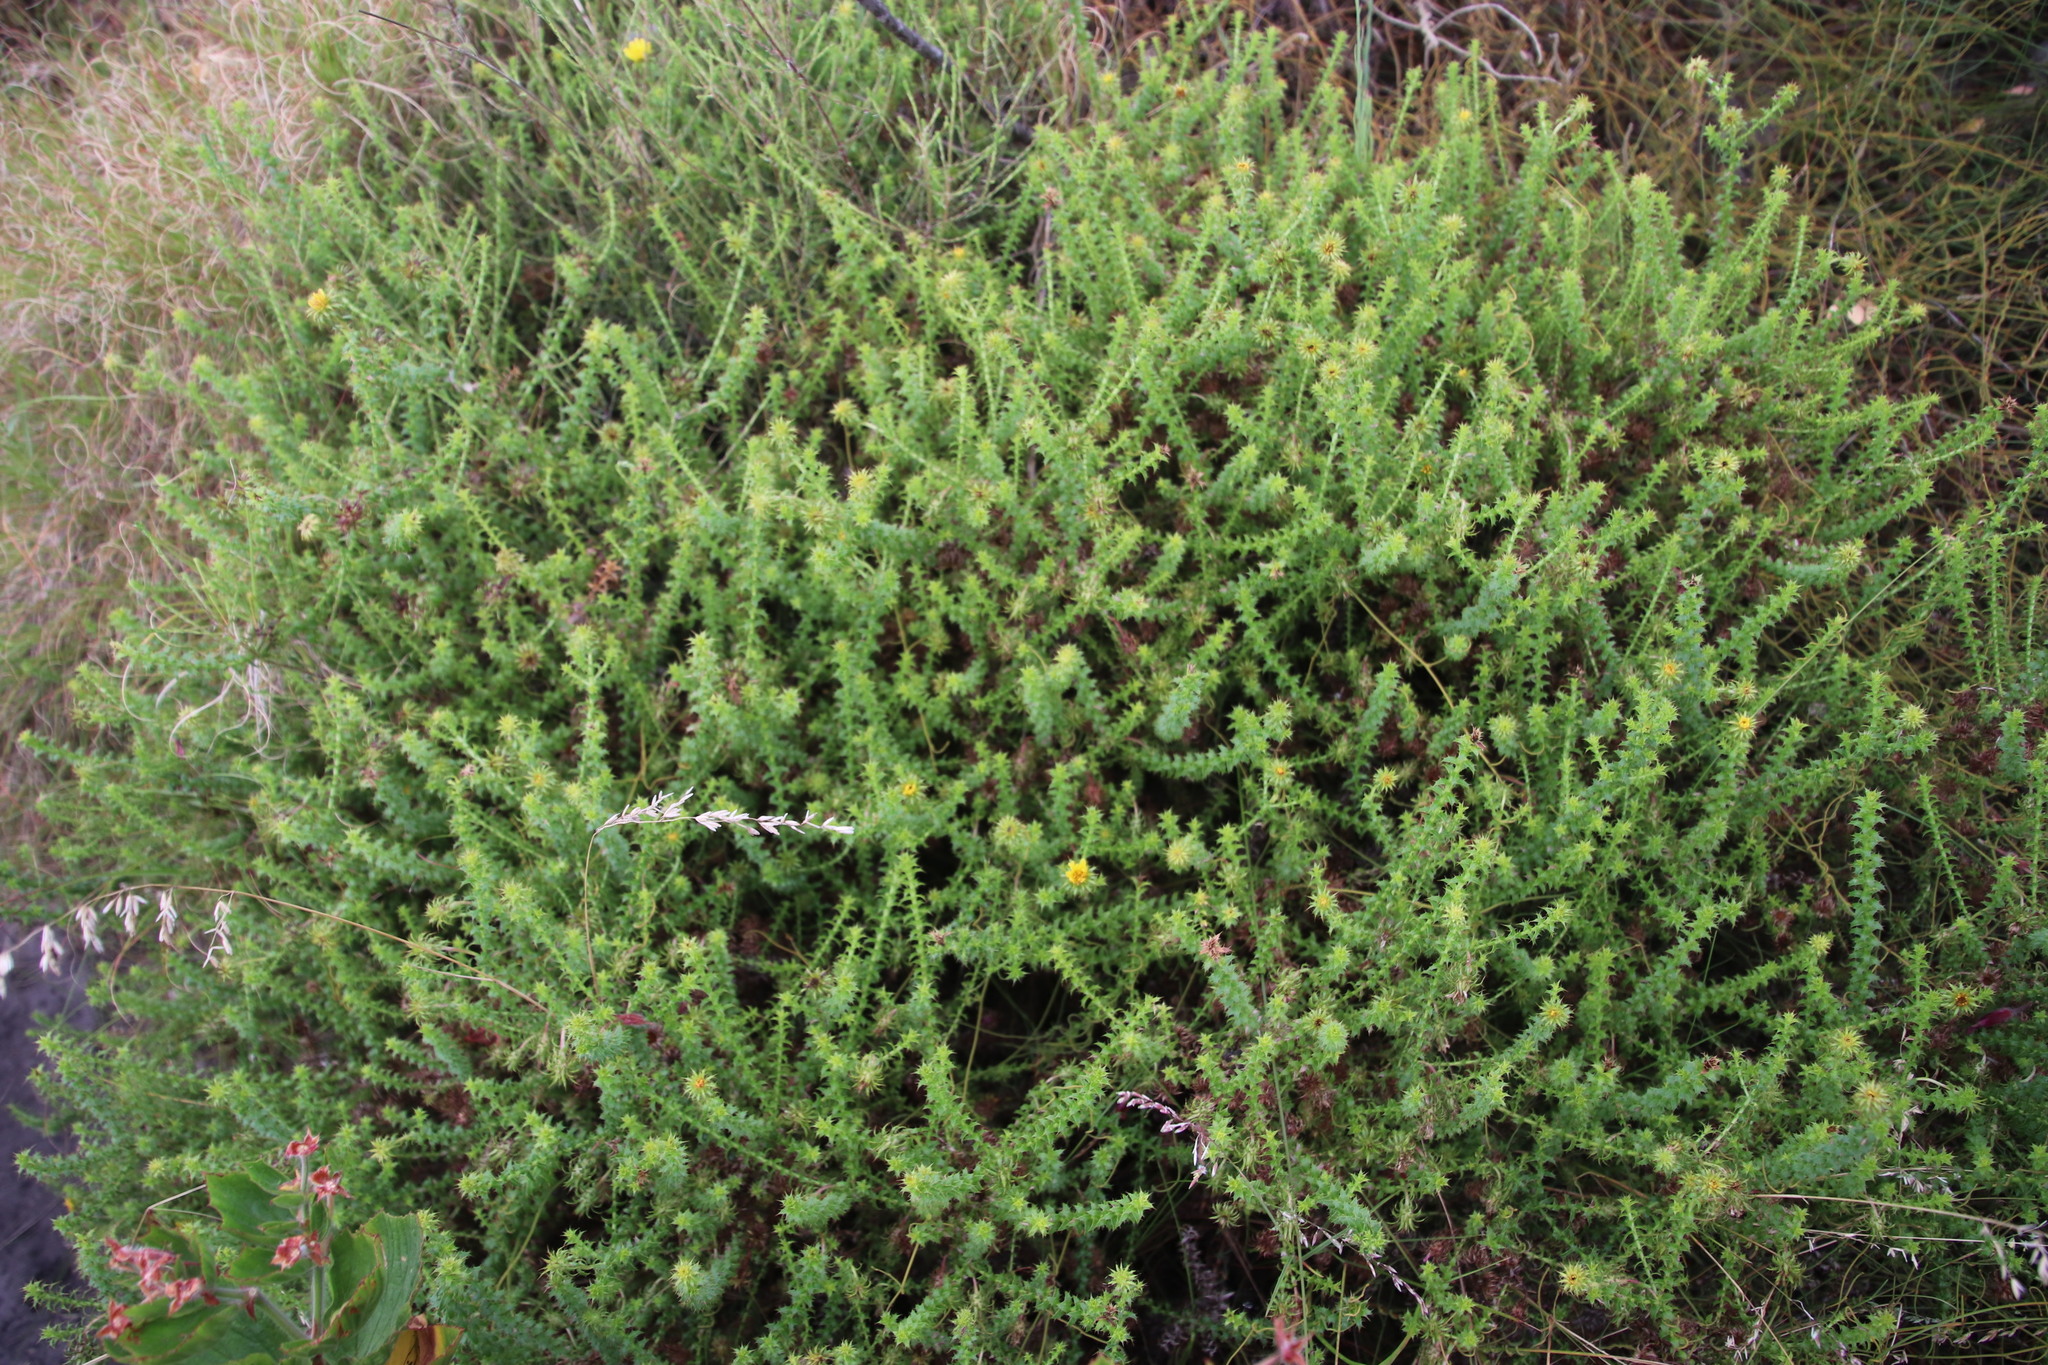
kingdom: Plantae
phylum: Tracheophyta
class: Magnoliopsida
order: Asterales
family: Asteraceae
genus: Cullumia
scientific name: Cullumia setosa
